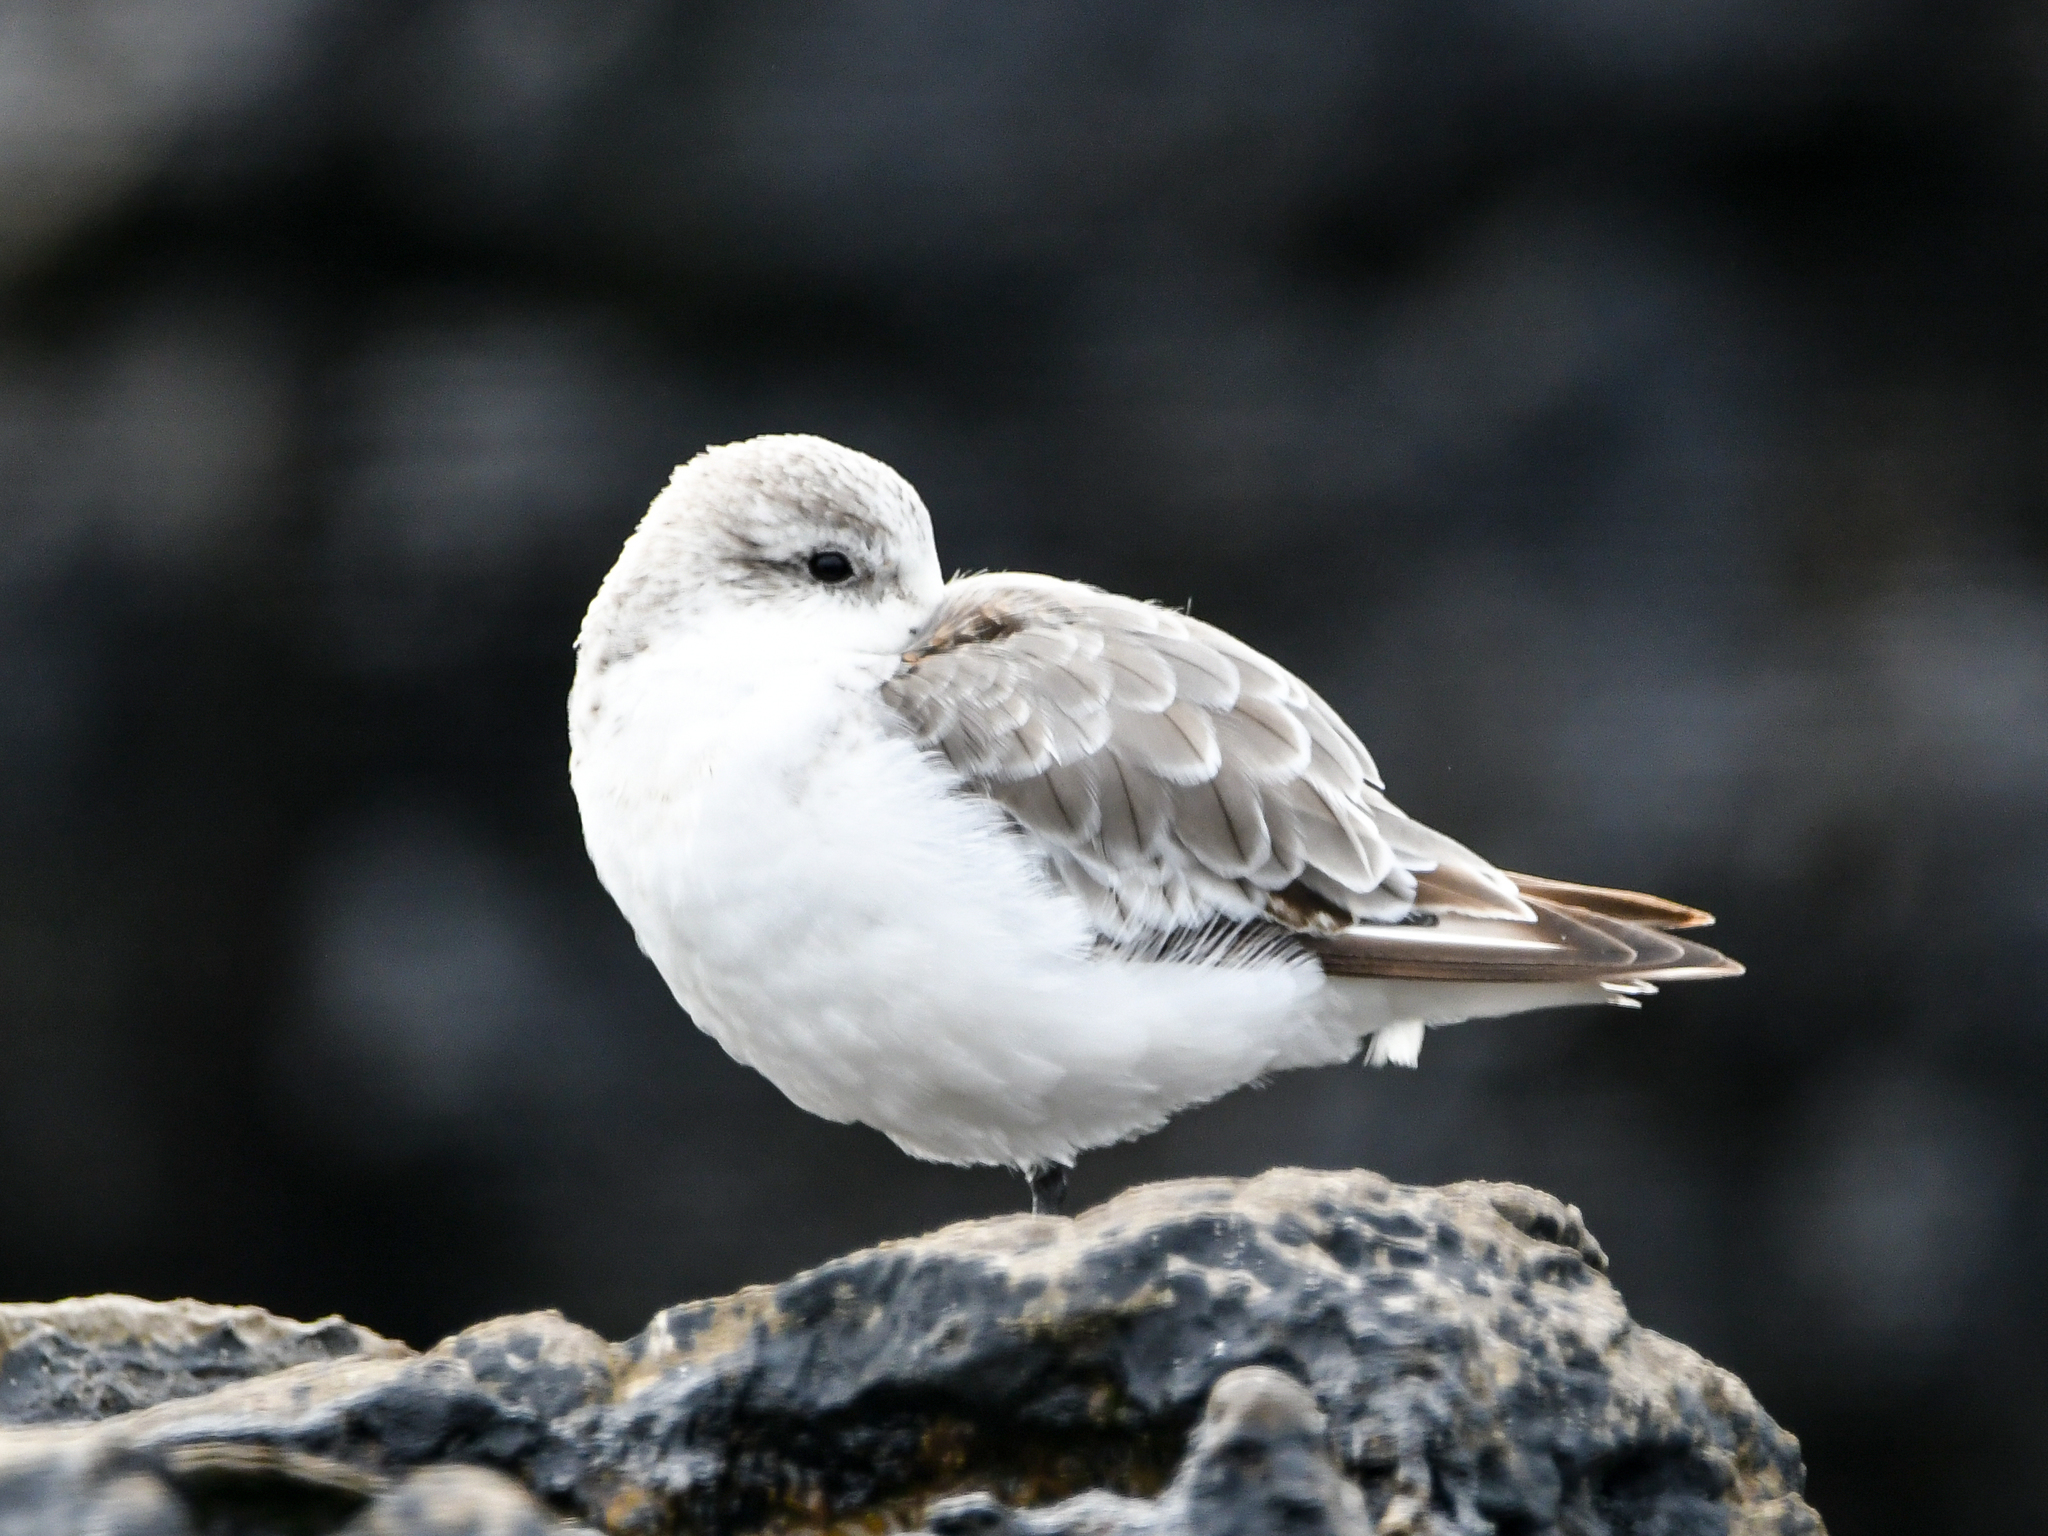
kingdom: Animalia
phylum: Chordata
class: Aves
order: Charadriiformes
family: Scolopacidae
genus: Calidris
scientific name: Calidris alba
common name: Sanderling
